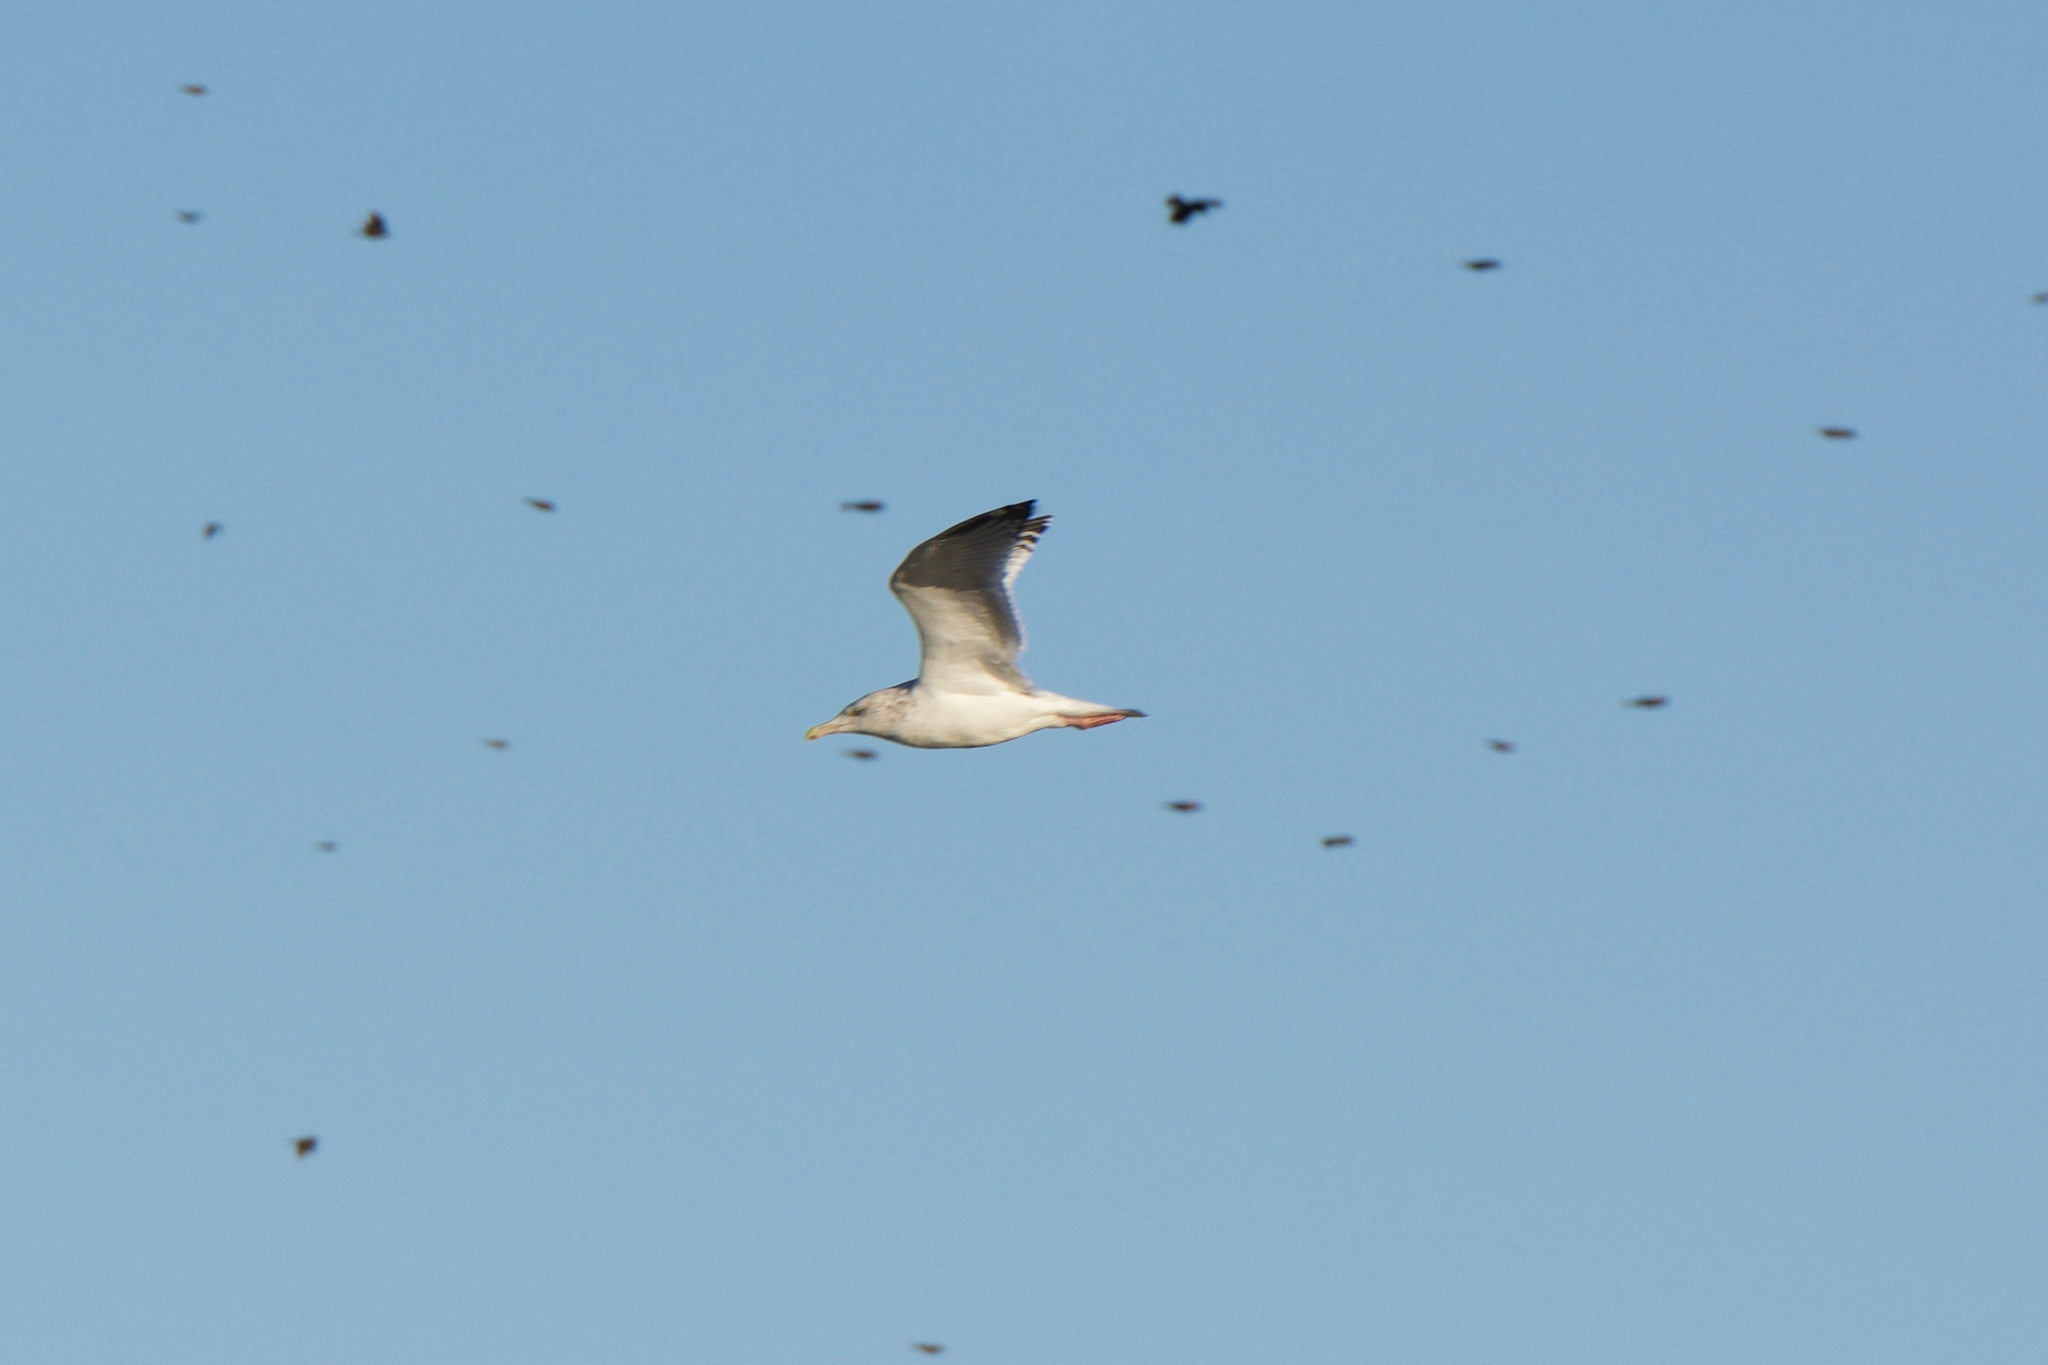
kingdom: Animalia
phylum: Chordata
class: Aves
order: Charadriiformes
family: Laridae
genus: Larus
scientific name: Larus argentatus
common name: Herring gull
